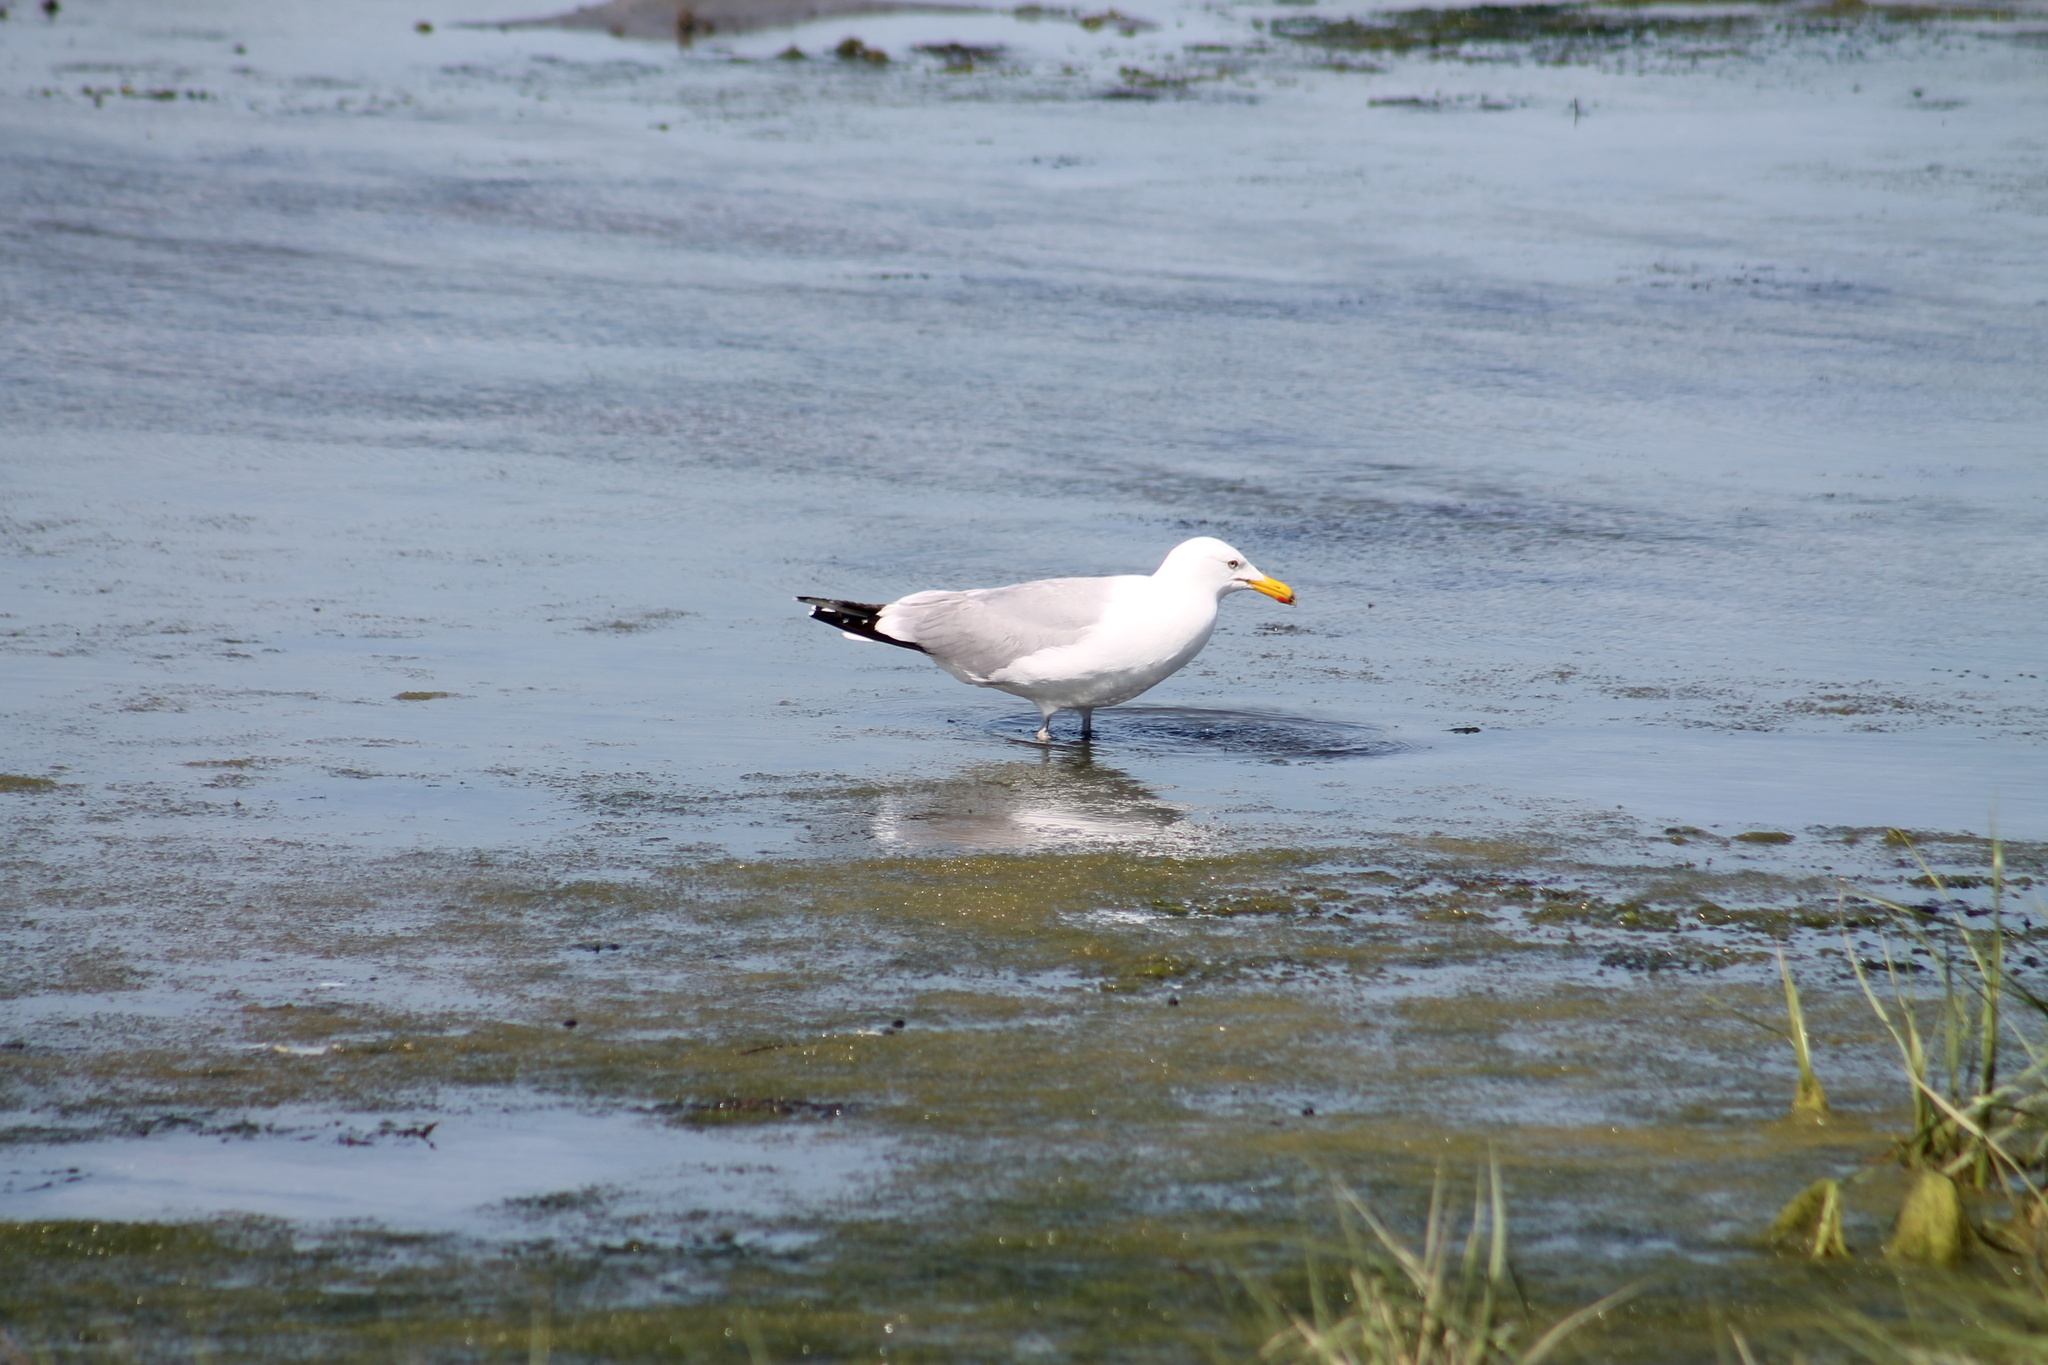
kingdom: Animalia
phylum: Chordata
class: Aves
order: Charadriiformes
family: Laridae
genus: Larus
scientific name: Larus argentatus
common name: Herring gull
